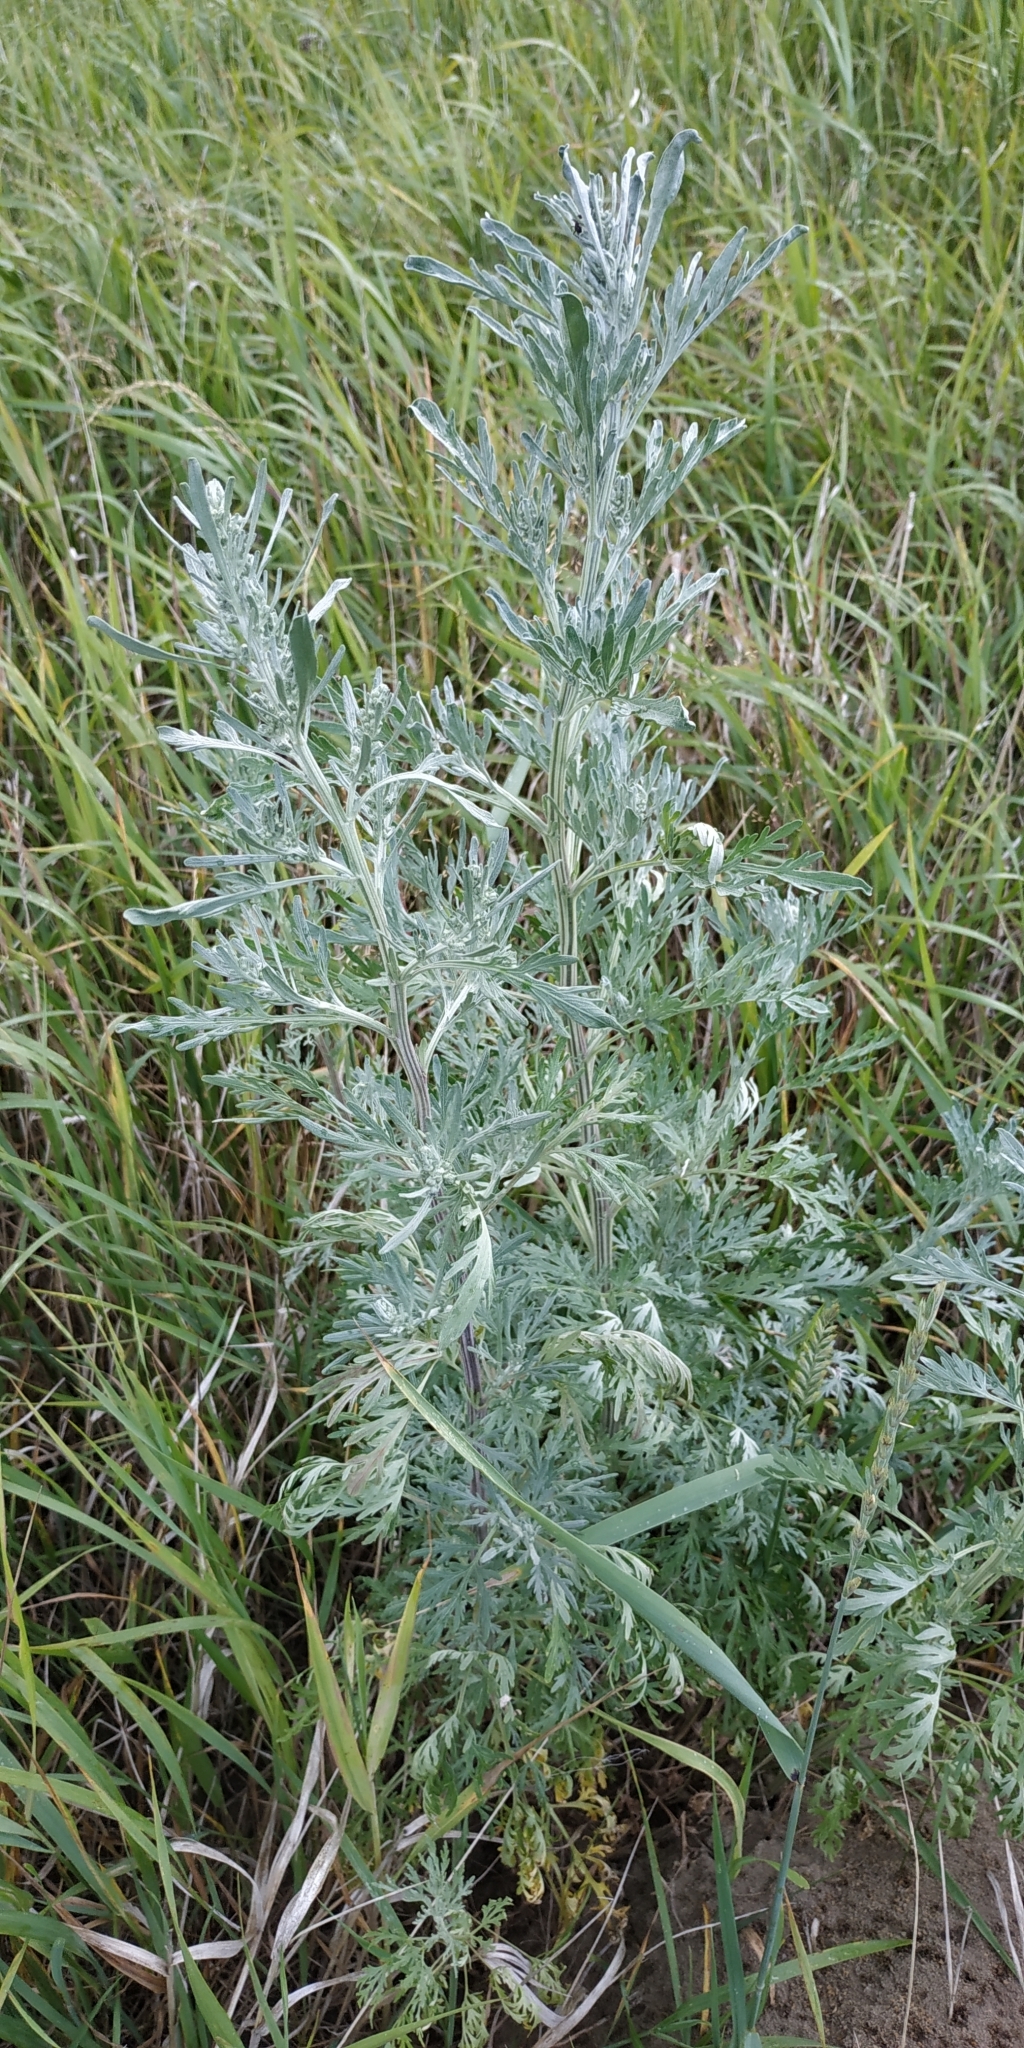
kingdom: Plantae
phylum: Tracheophyta
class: Magnoliopsida
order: Asterales
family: Asteraceae
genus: Artemisia
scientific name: Artemisia sieversiana
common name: Sieversian wormwood
